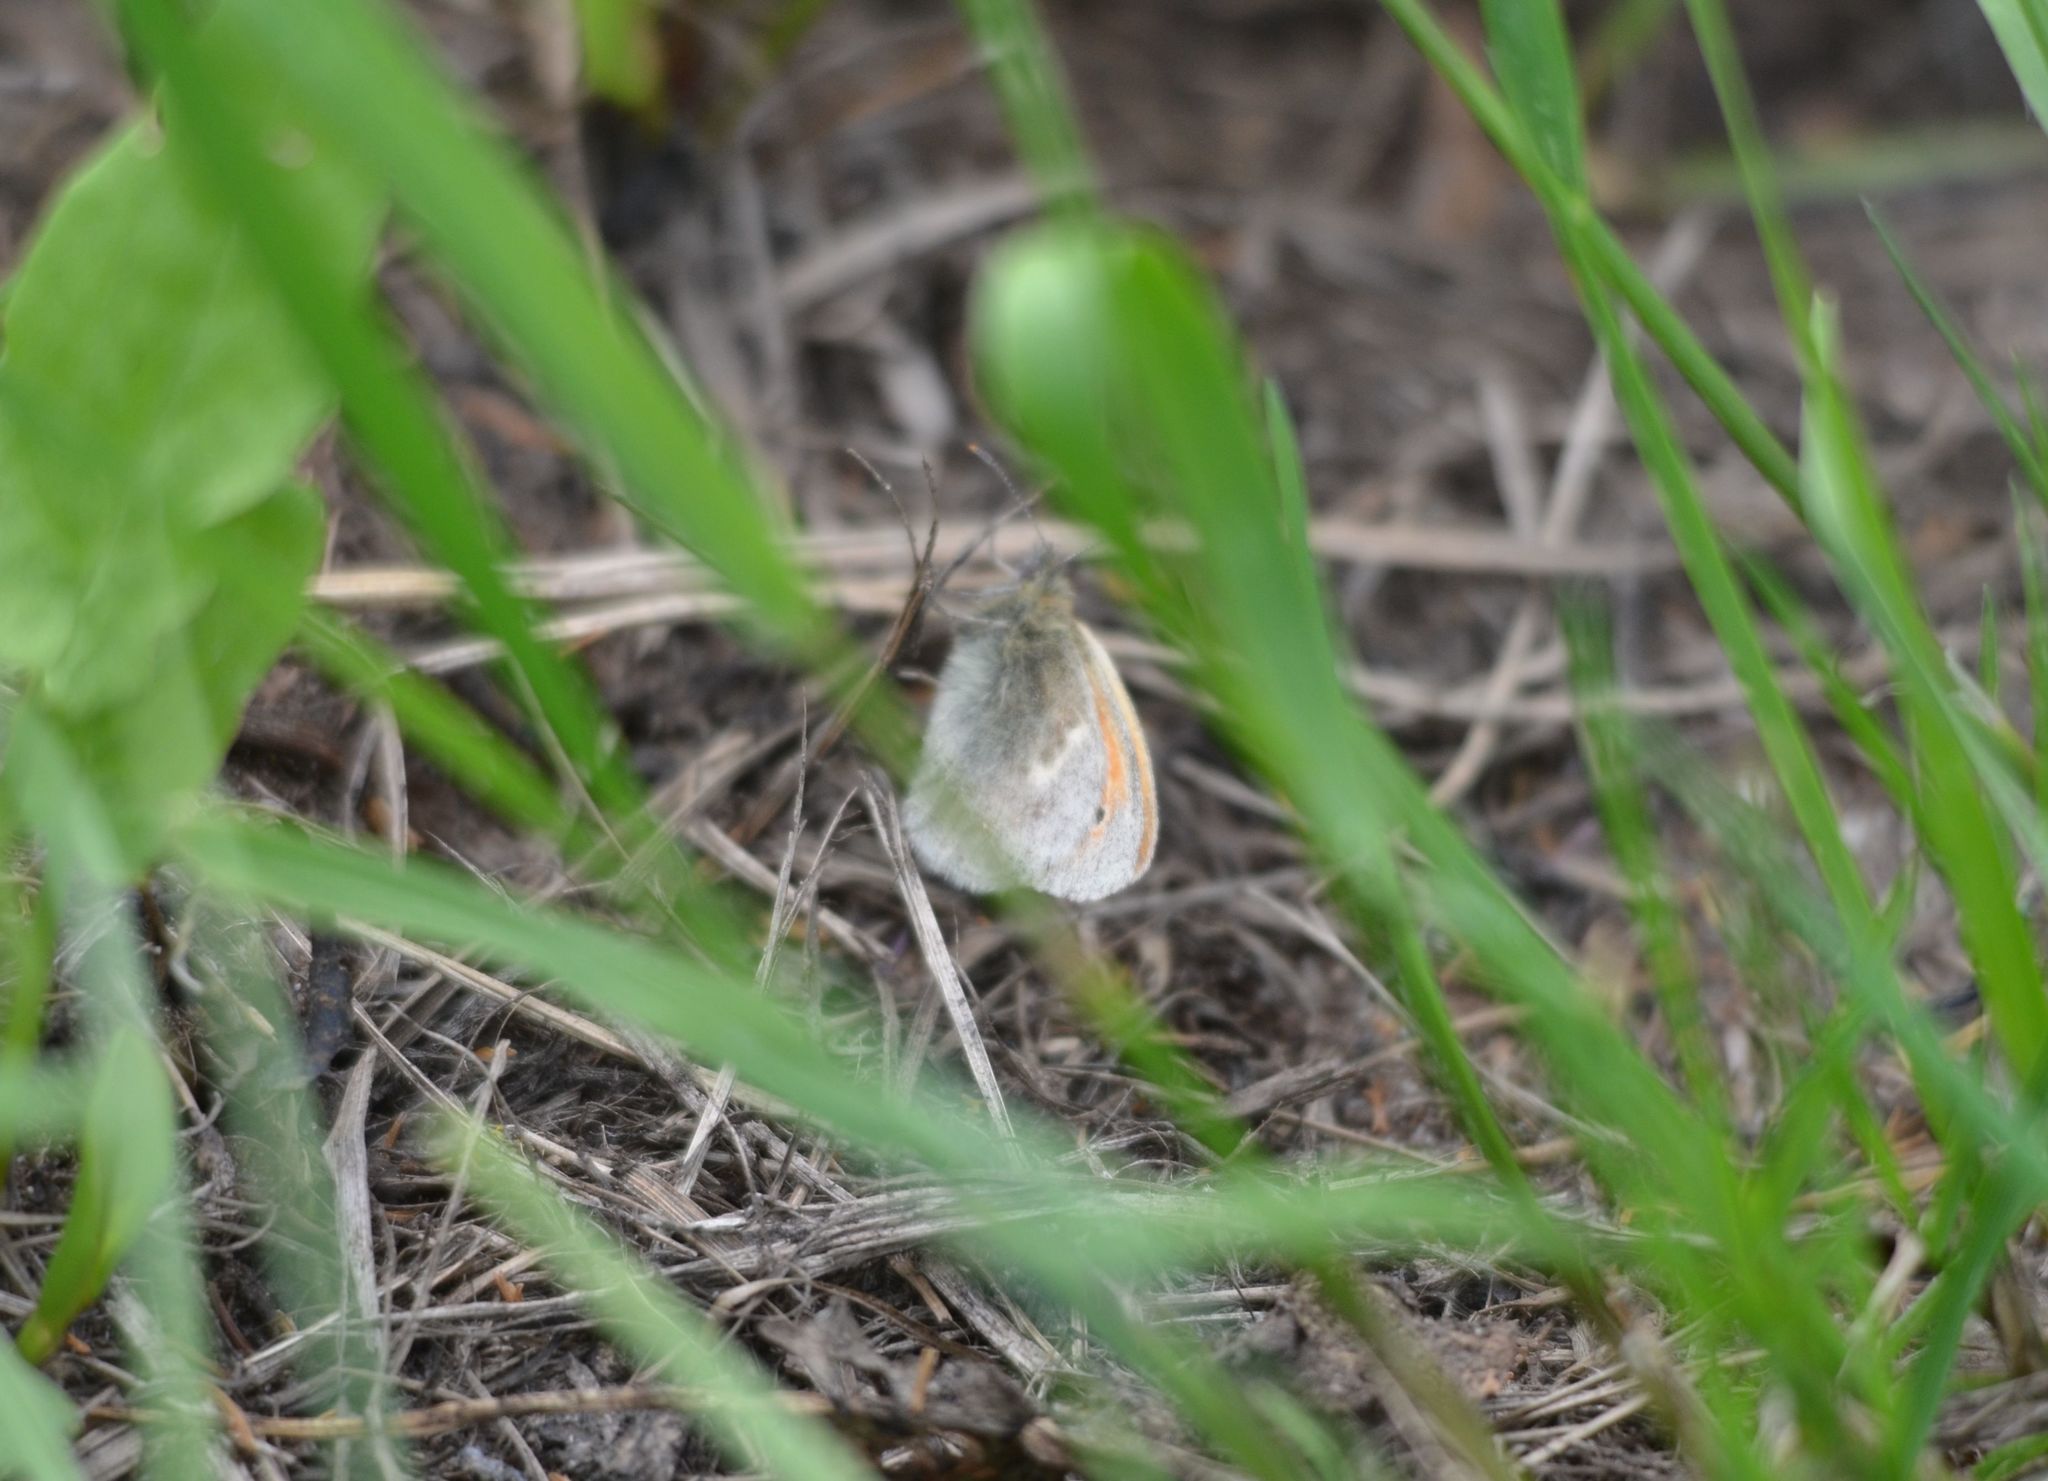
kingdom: Animalia
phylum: Arthropoda
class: Insecta
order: Lepidoptera
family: Nymphalidae
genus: Coenonympha
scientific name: Coenonympha pamphilus
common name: Small heath
